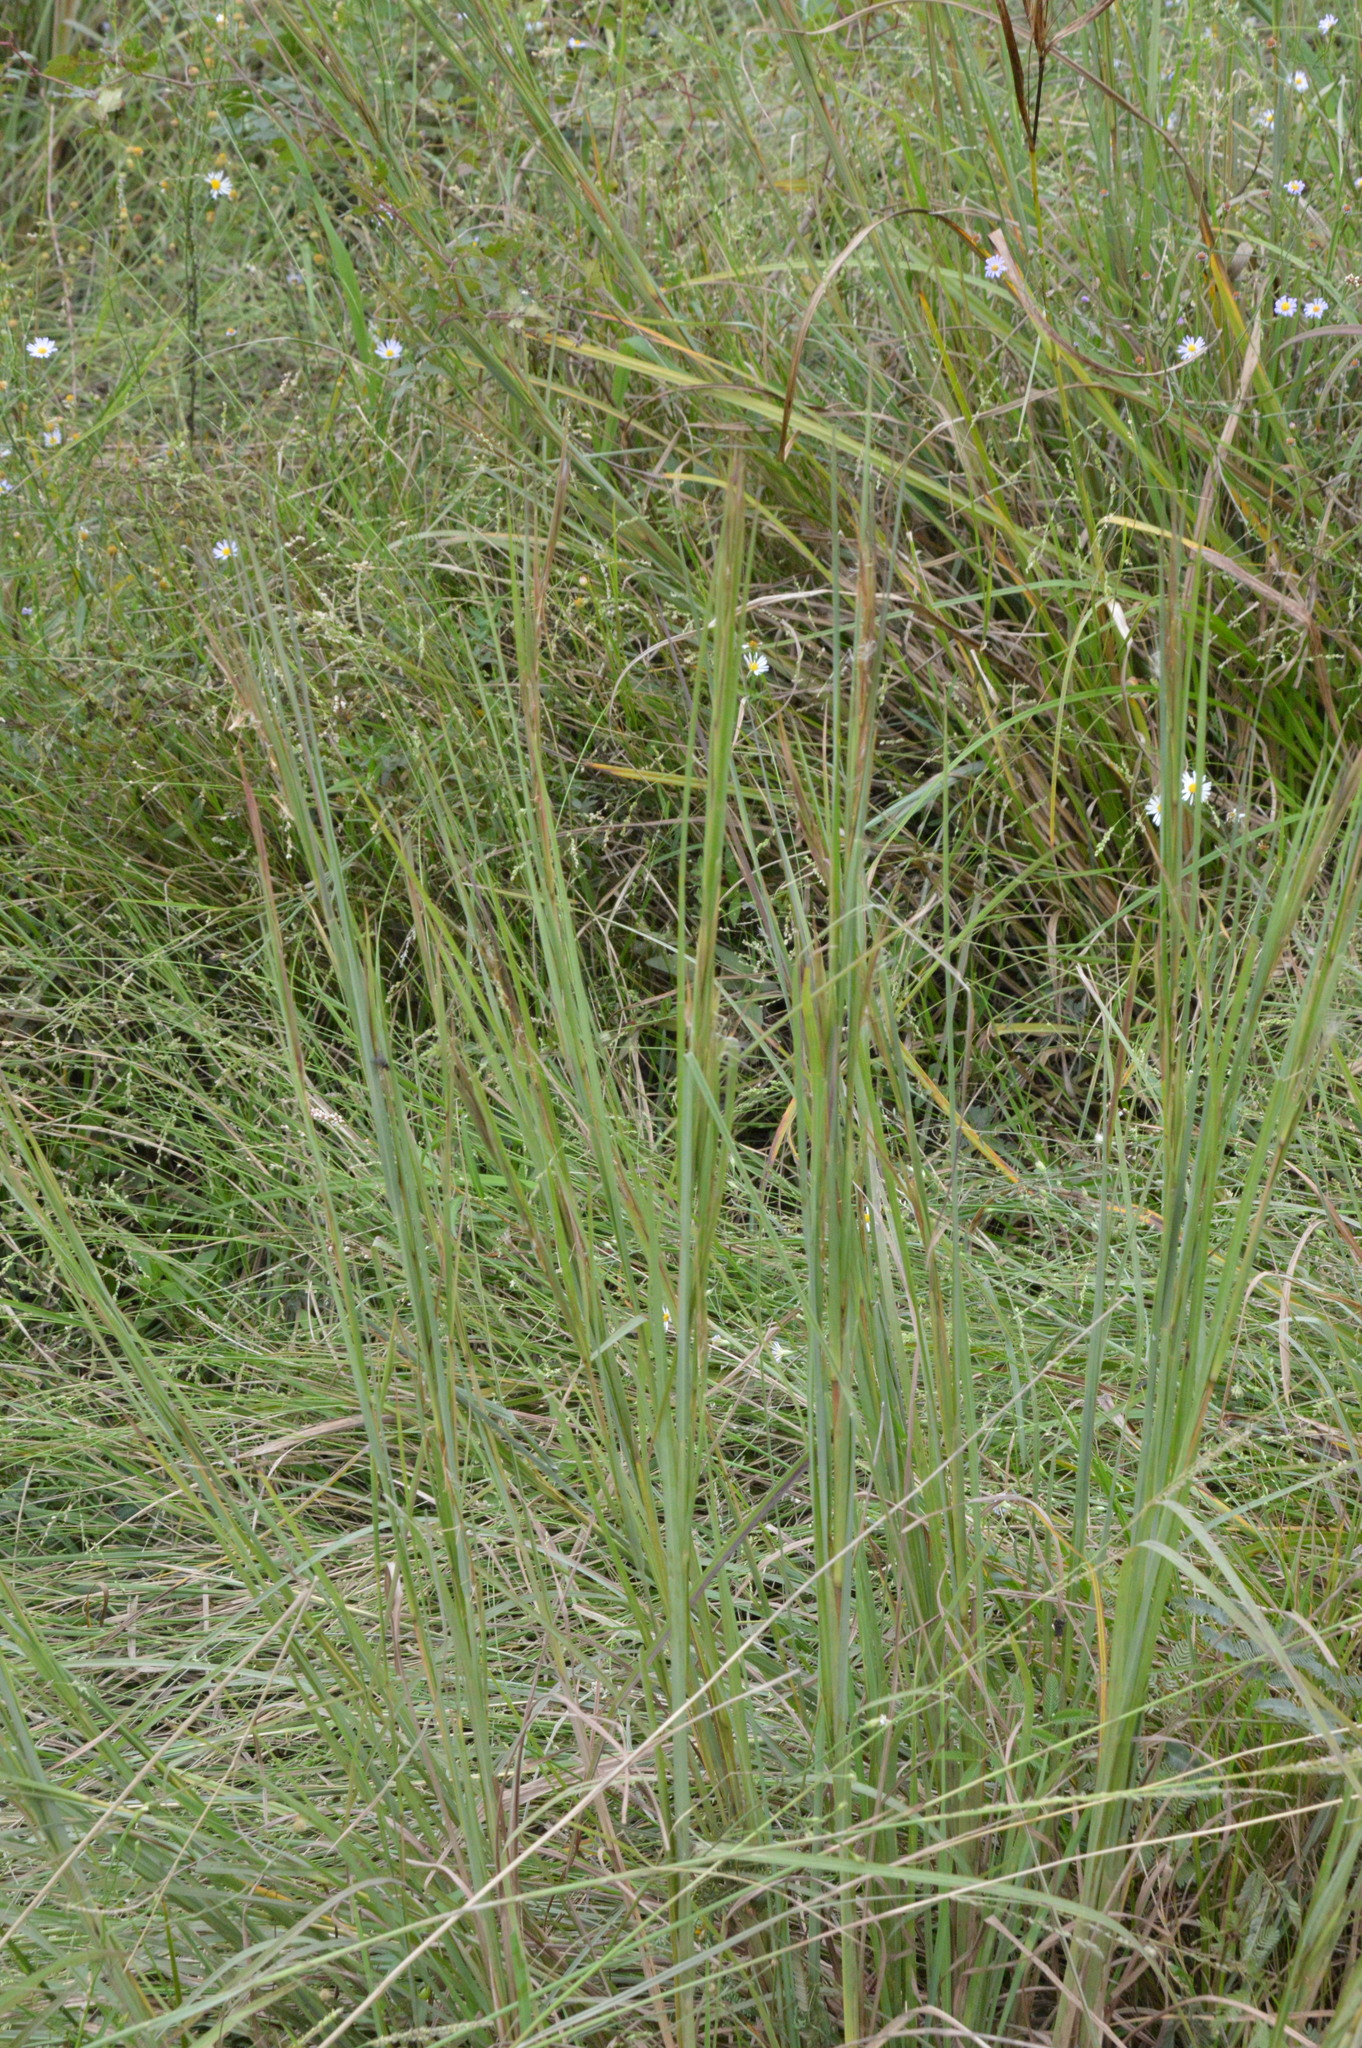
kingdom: Plantae
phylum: Tracheophyta
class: Liliopsida
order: Poales
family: Poaceae
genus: Andropogon
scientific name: Andropogon virginicus
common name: Broomsedge bluestem
